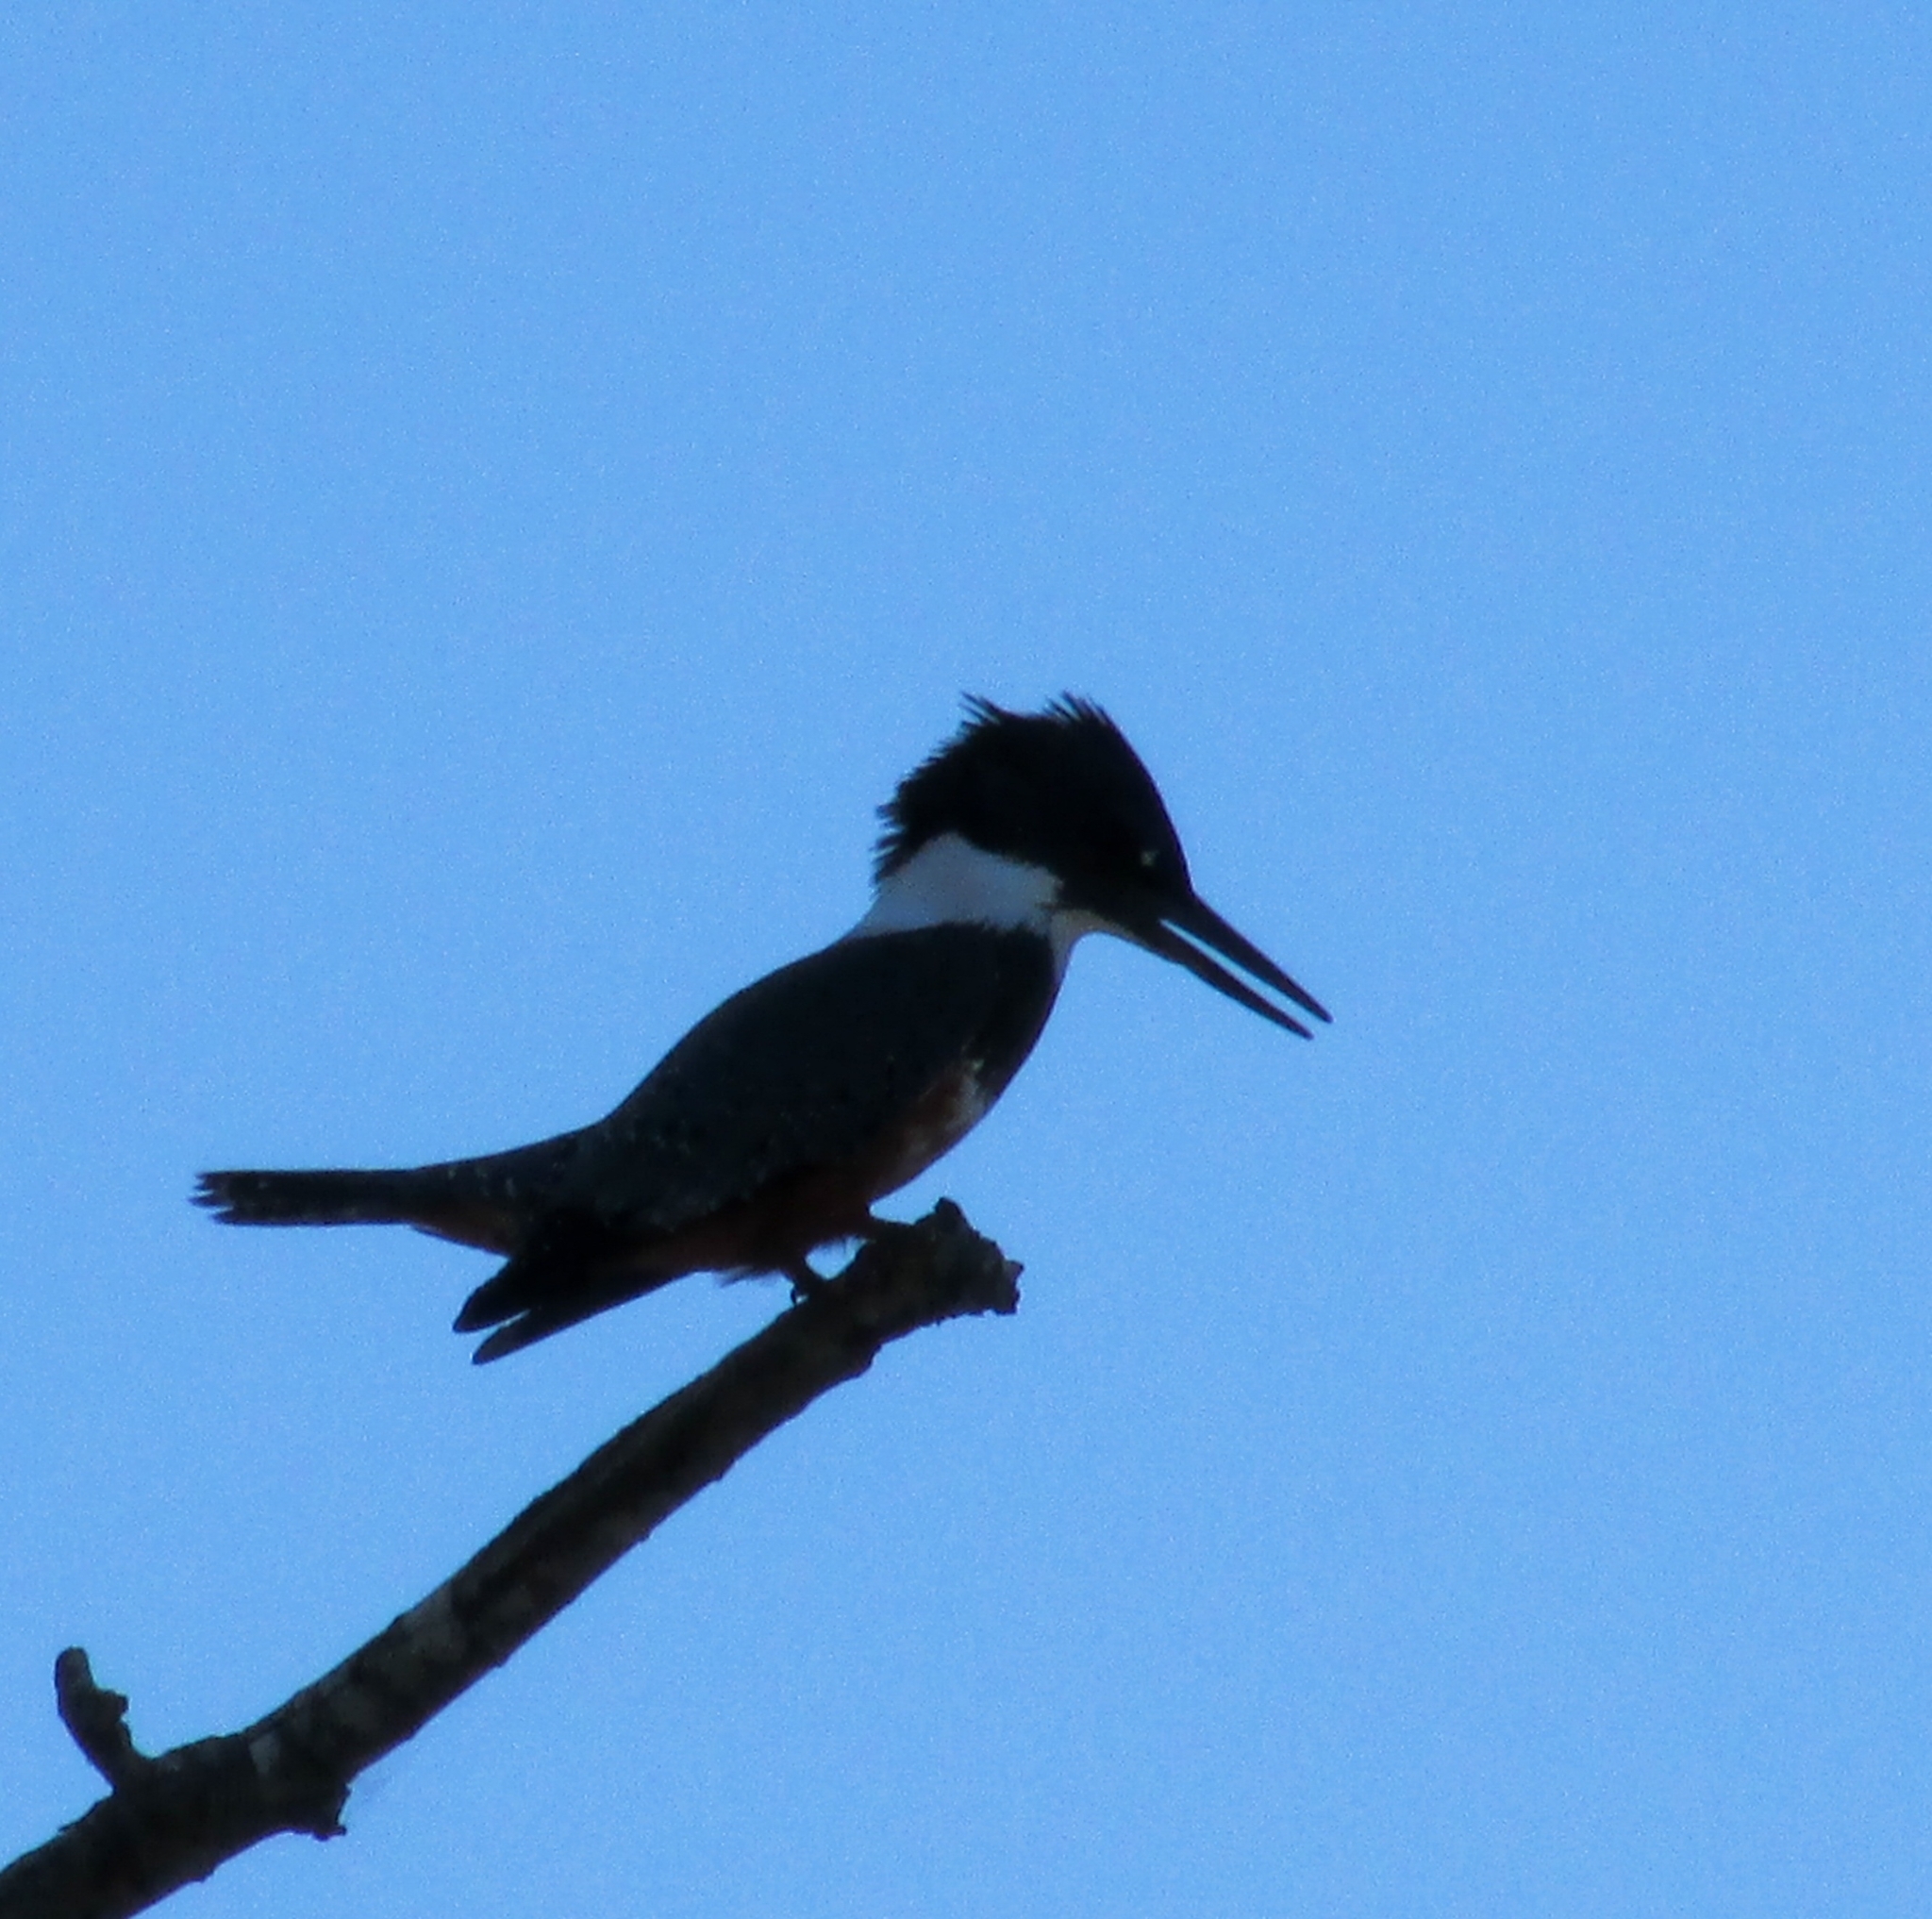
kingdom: Animalia
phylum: Chordata
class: Aves
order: Coraciiformes
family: Alcedinidae
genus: Megaceryle
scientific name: Megaceryle torquata
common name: Ringed kingfisher
